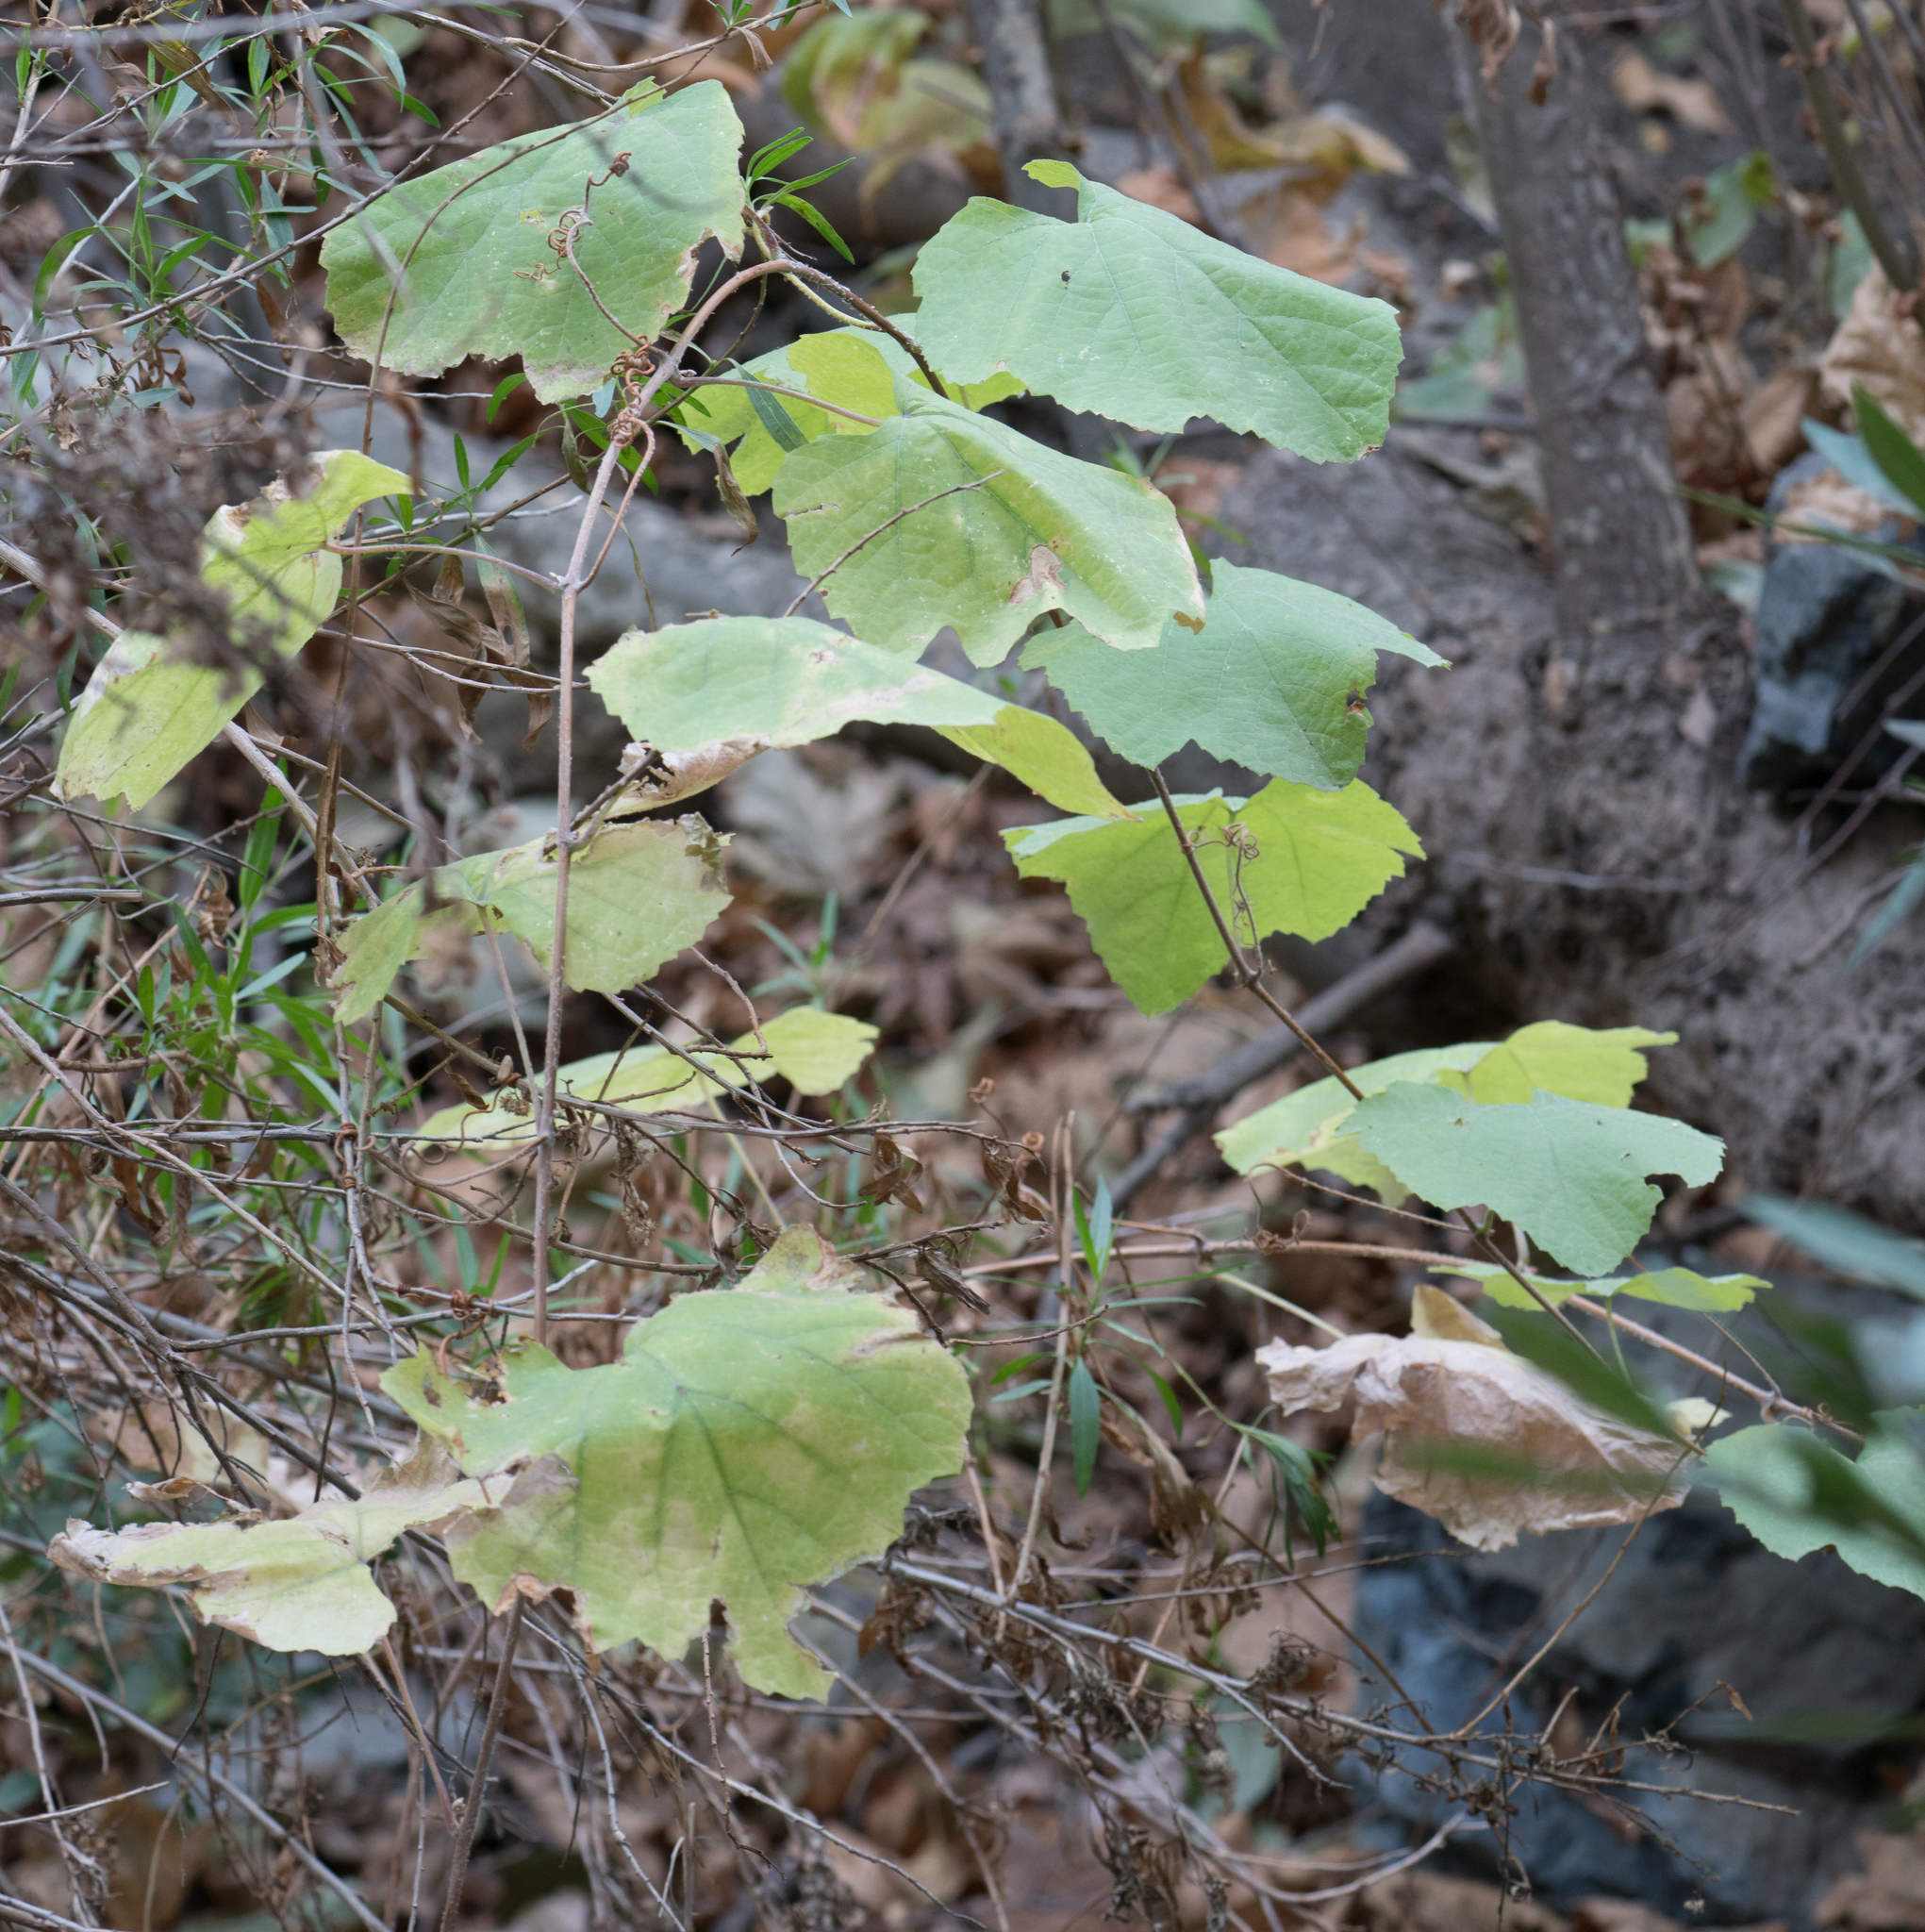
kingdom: Plantae
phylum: Tracheophyta
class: Magnoliopsida
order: Vitales
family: Vitaceae
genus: Vitis
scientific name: Vitis girdiana
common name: Desert wild grape
